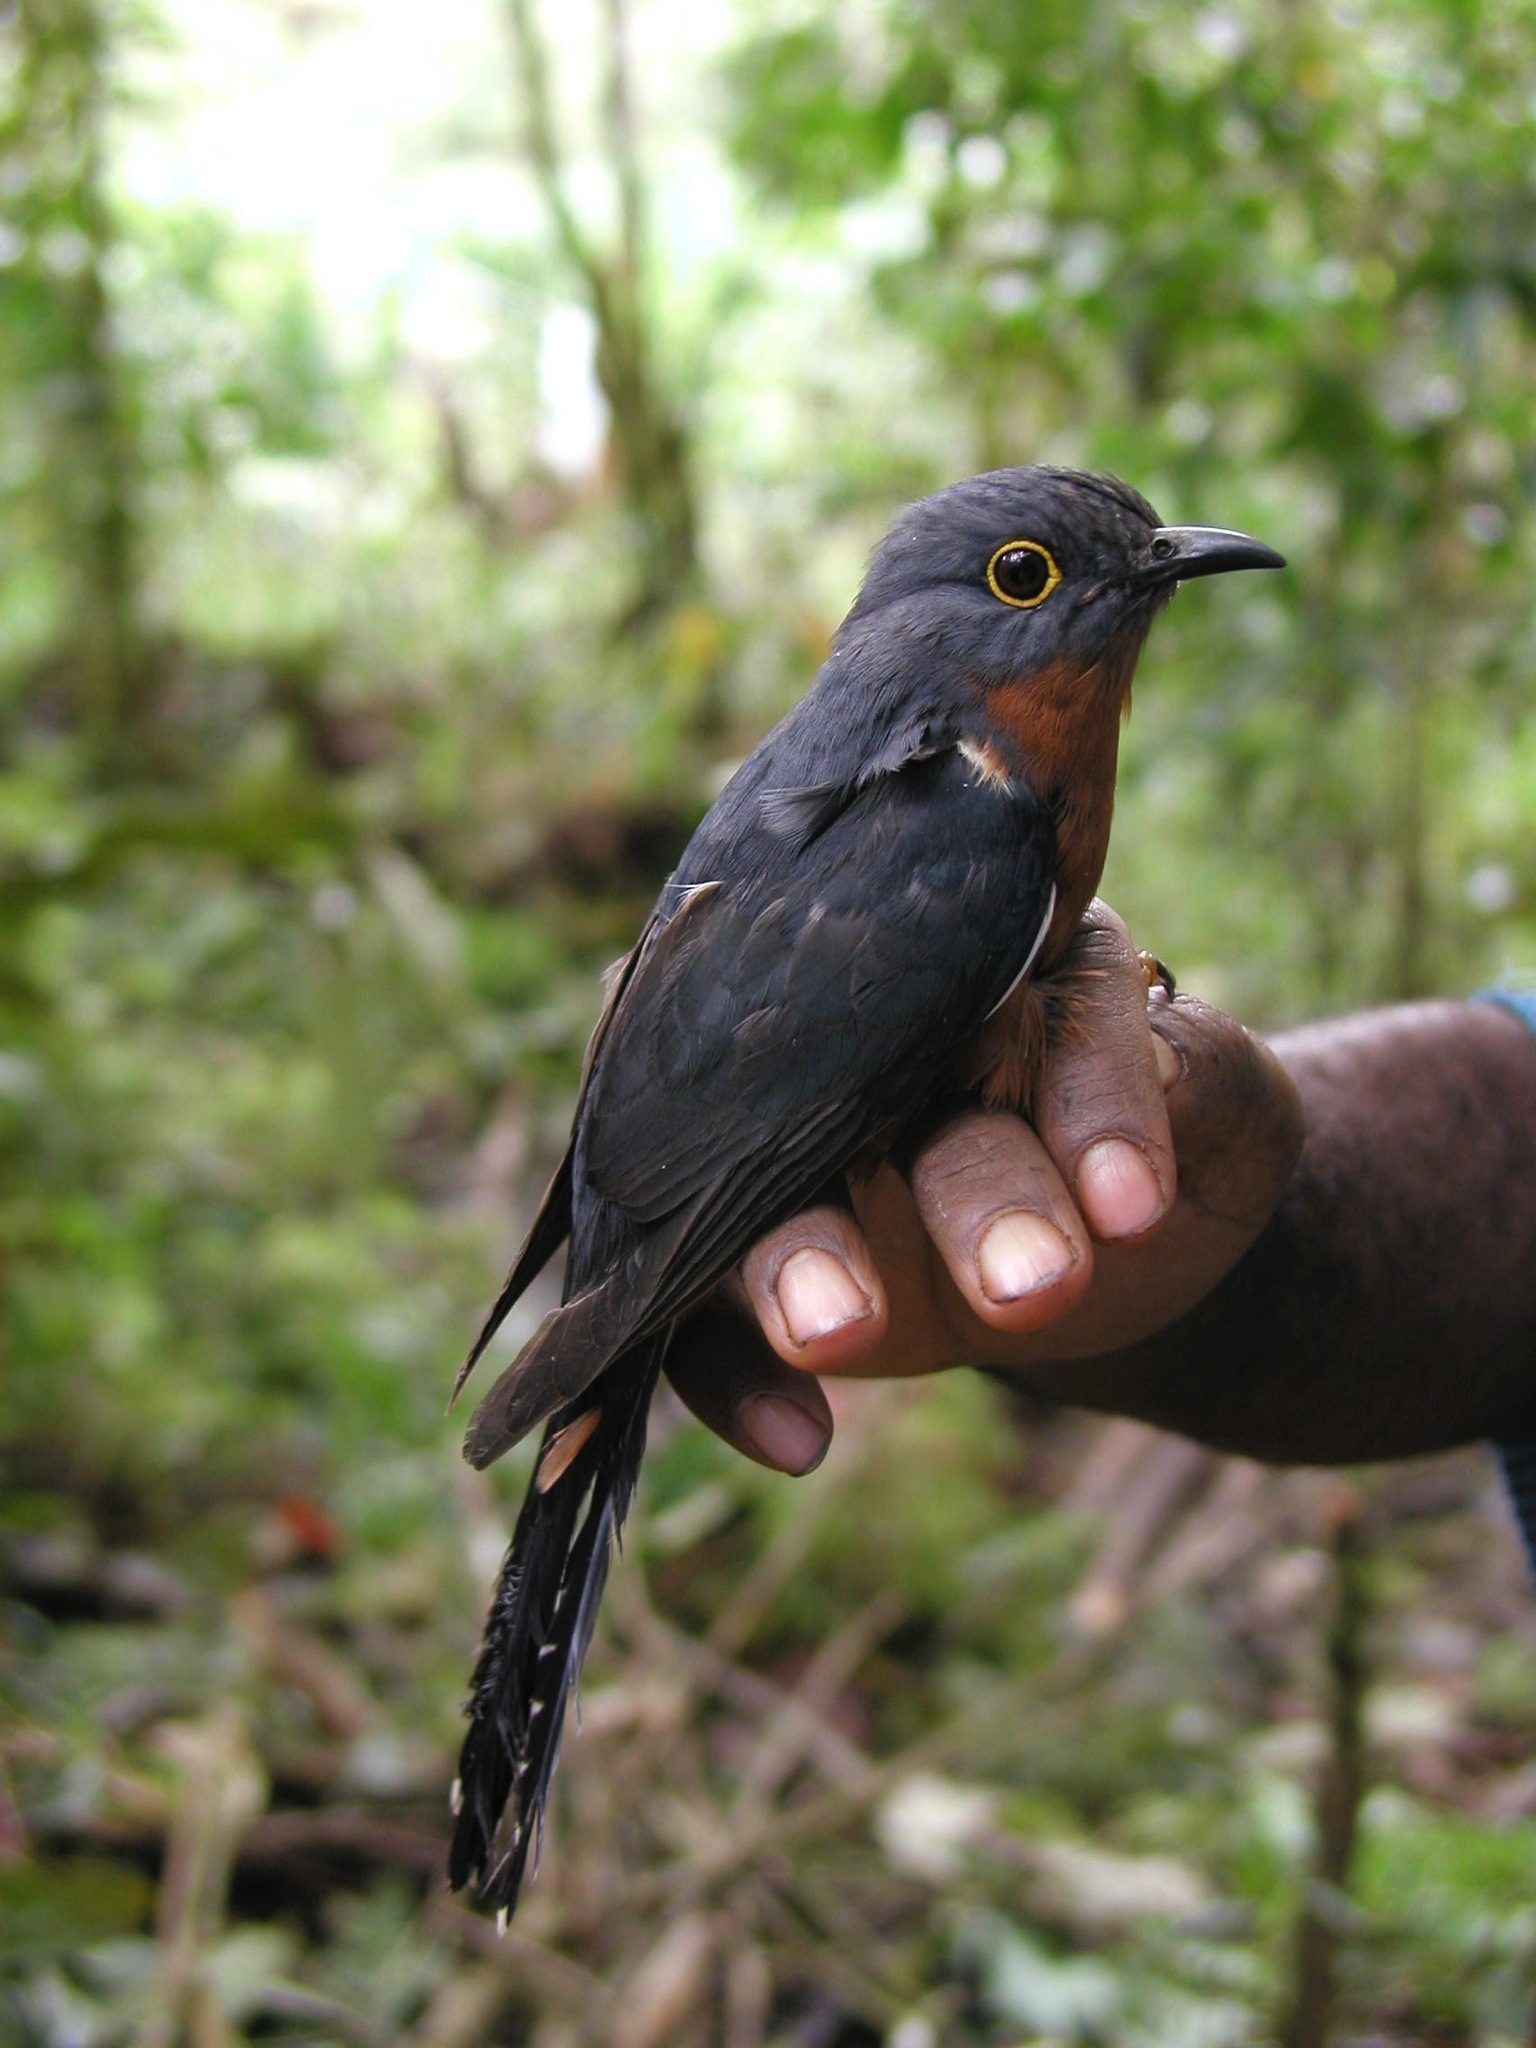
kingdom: Animalia
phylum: Chordata
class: Aves
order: Cuculiformes
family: Cuculidae
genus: Cacomantis
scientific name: Cacomantis castaneiventris
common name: Chestnut-breasted cuckoo
